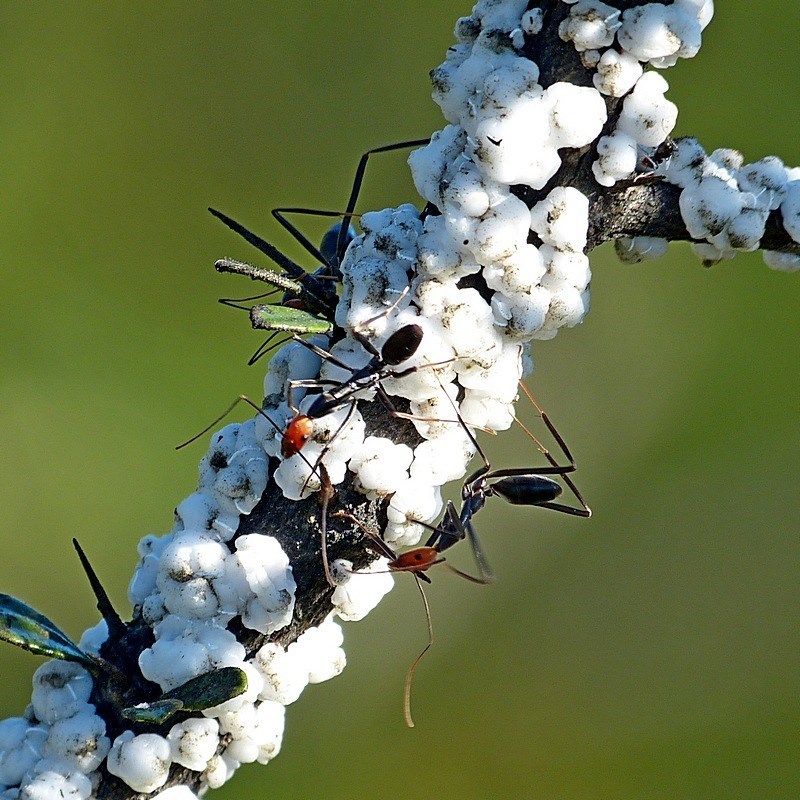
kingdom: Animalia
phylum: Arthropoda
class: Insecta
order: Hymenoptera
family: Formicidae
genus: Leptomyrmex
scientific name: Leptomyrmex erythrocephalus
